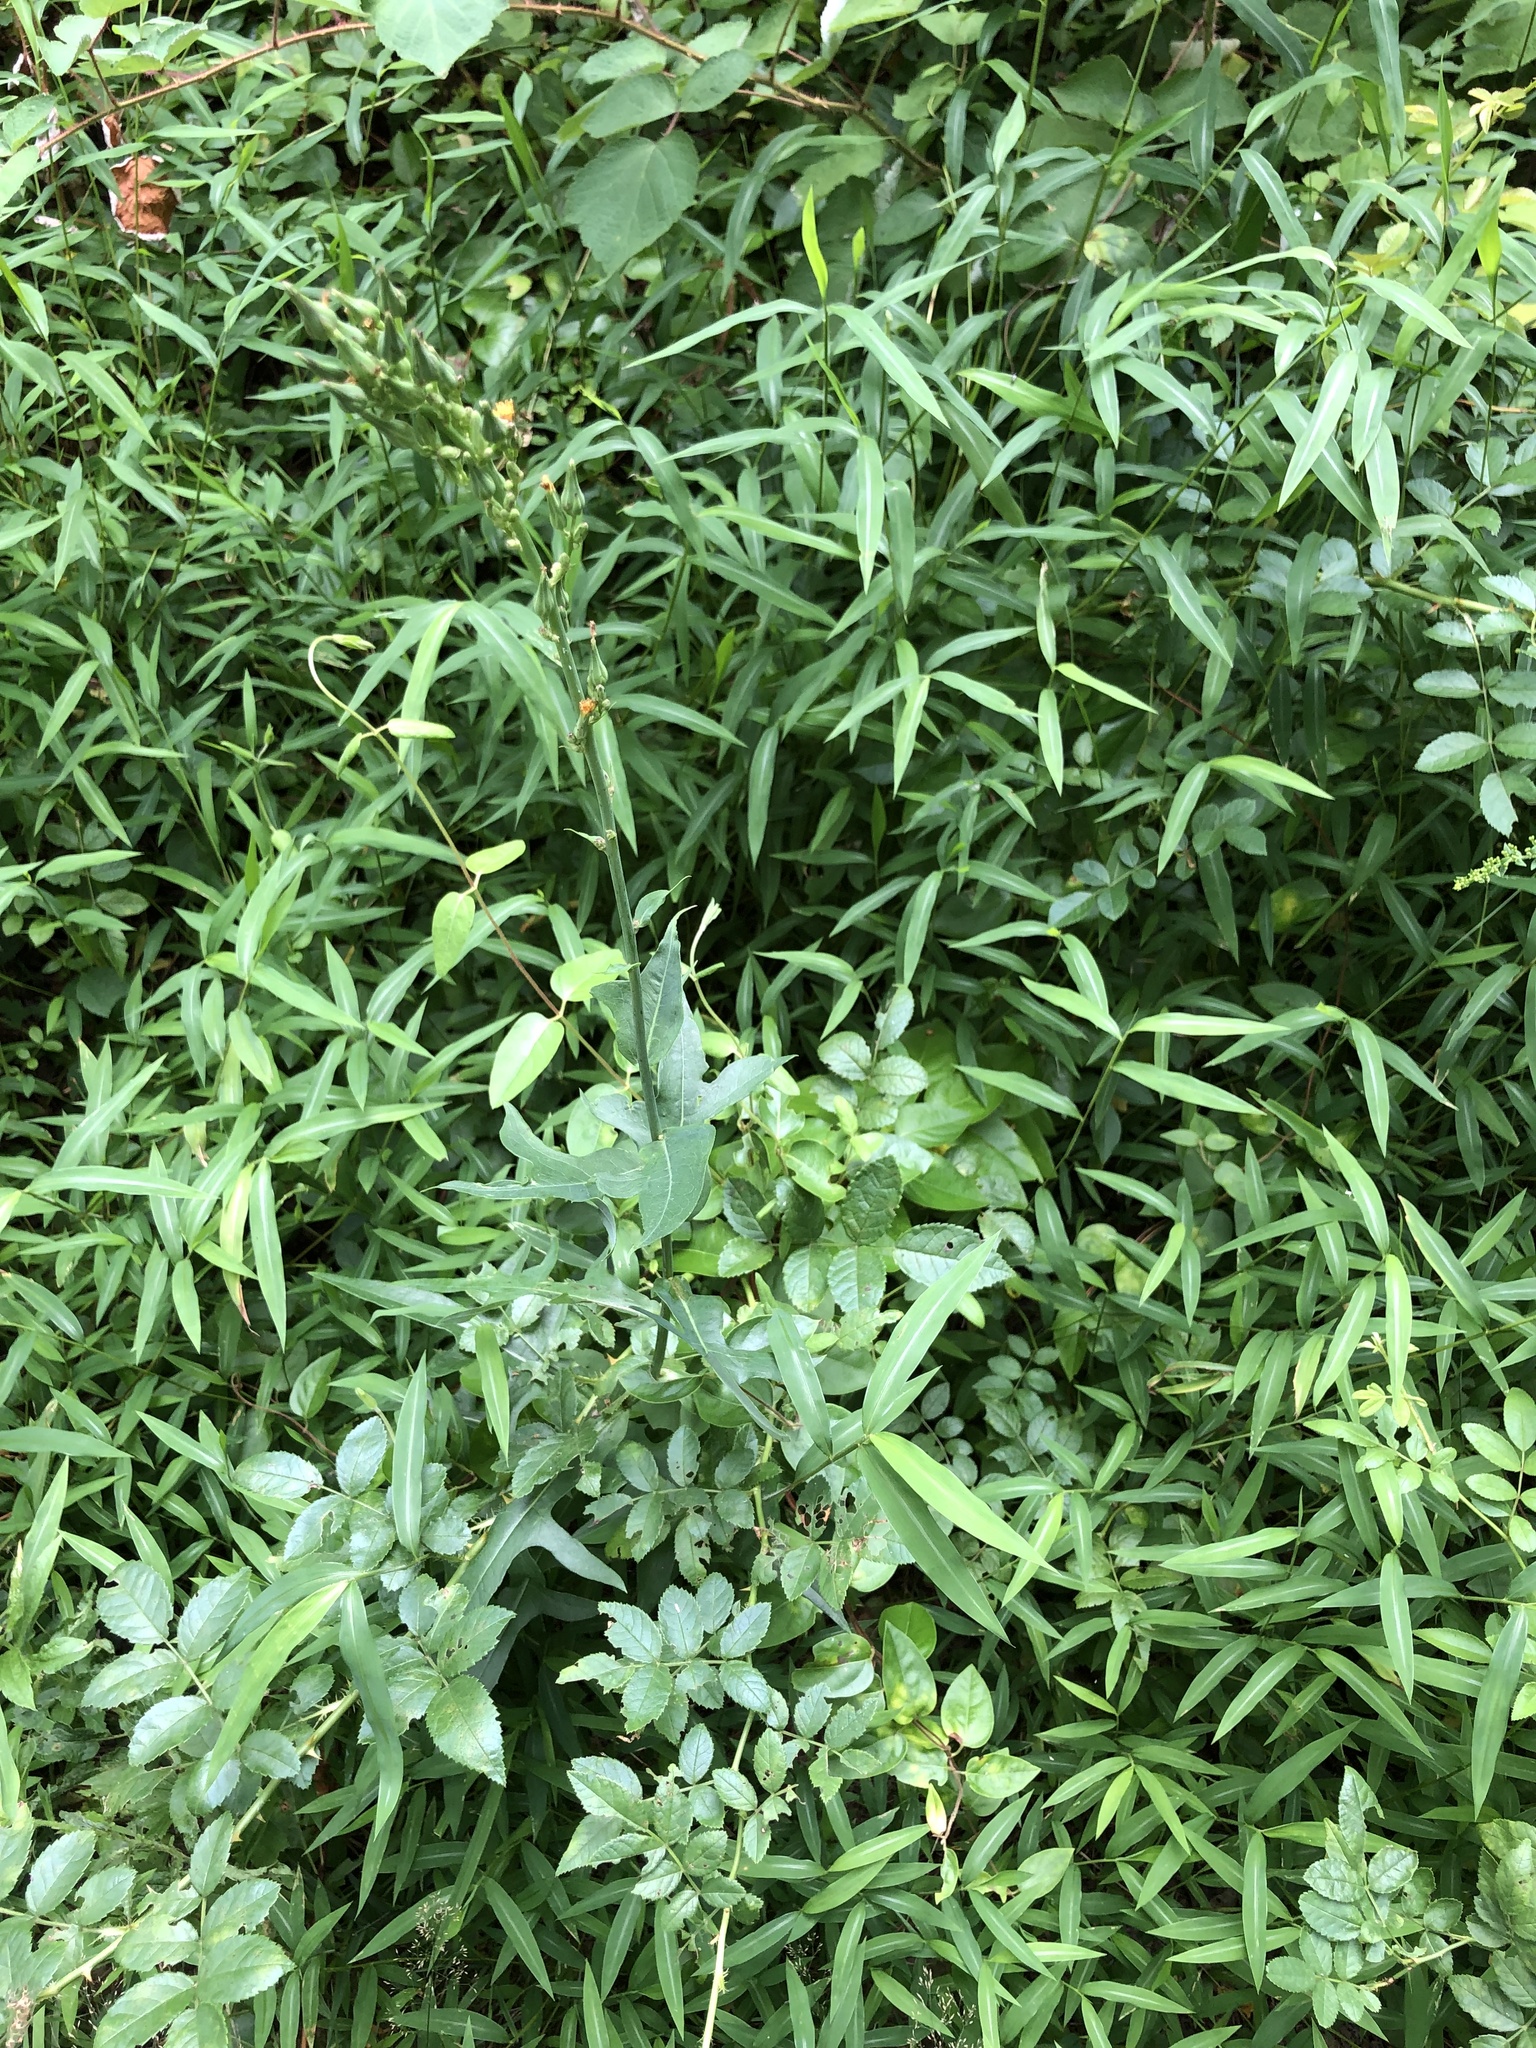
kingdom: Plantae
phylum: Tracheophyta
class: Magnoliopsida
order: Asterales
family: Asteraceae
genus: Lactuca
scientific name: Lactuca canadensis
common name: Canada lettuce
